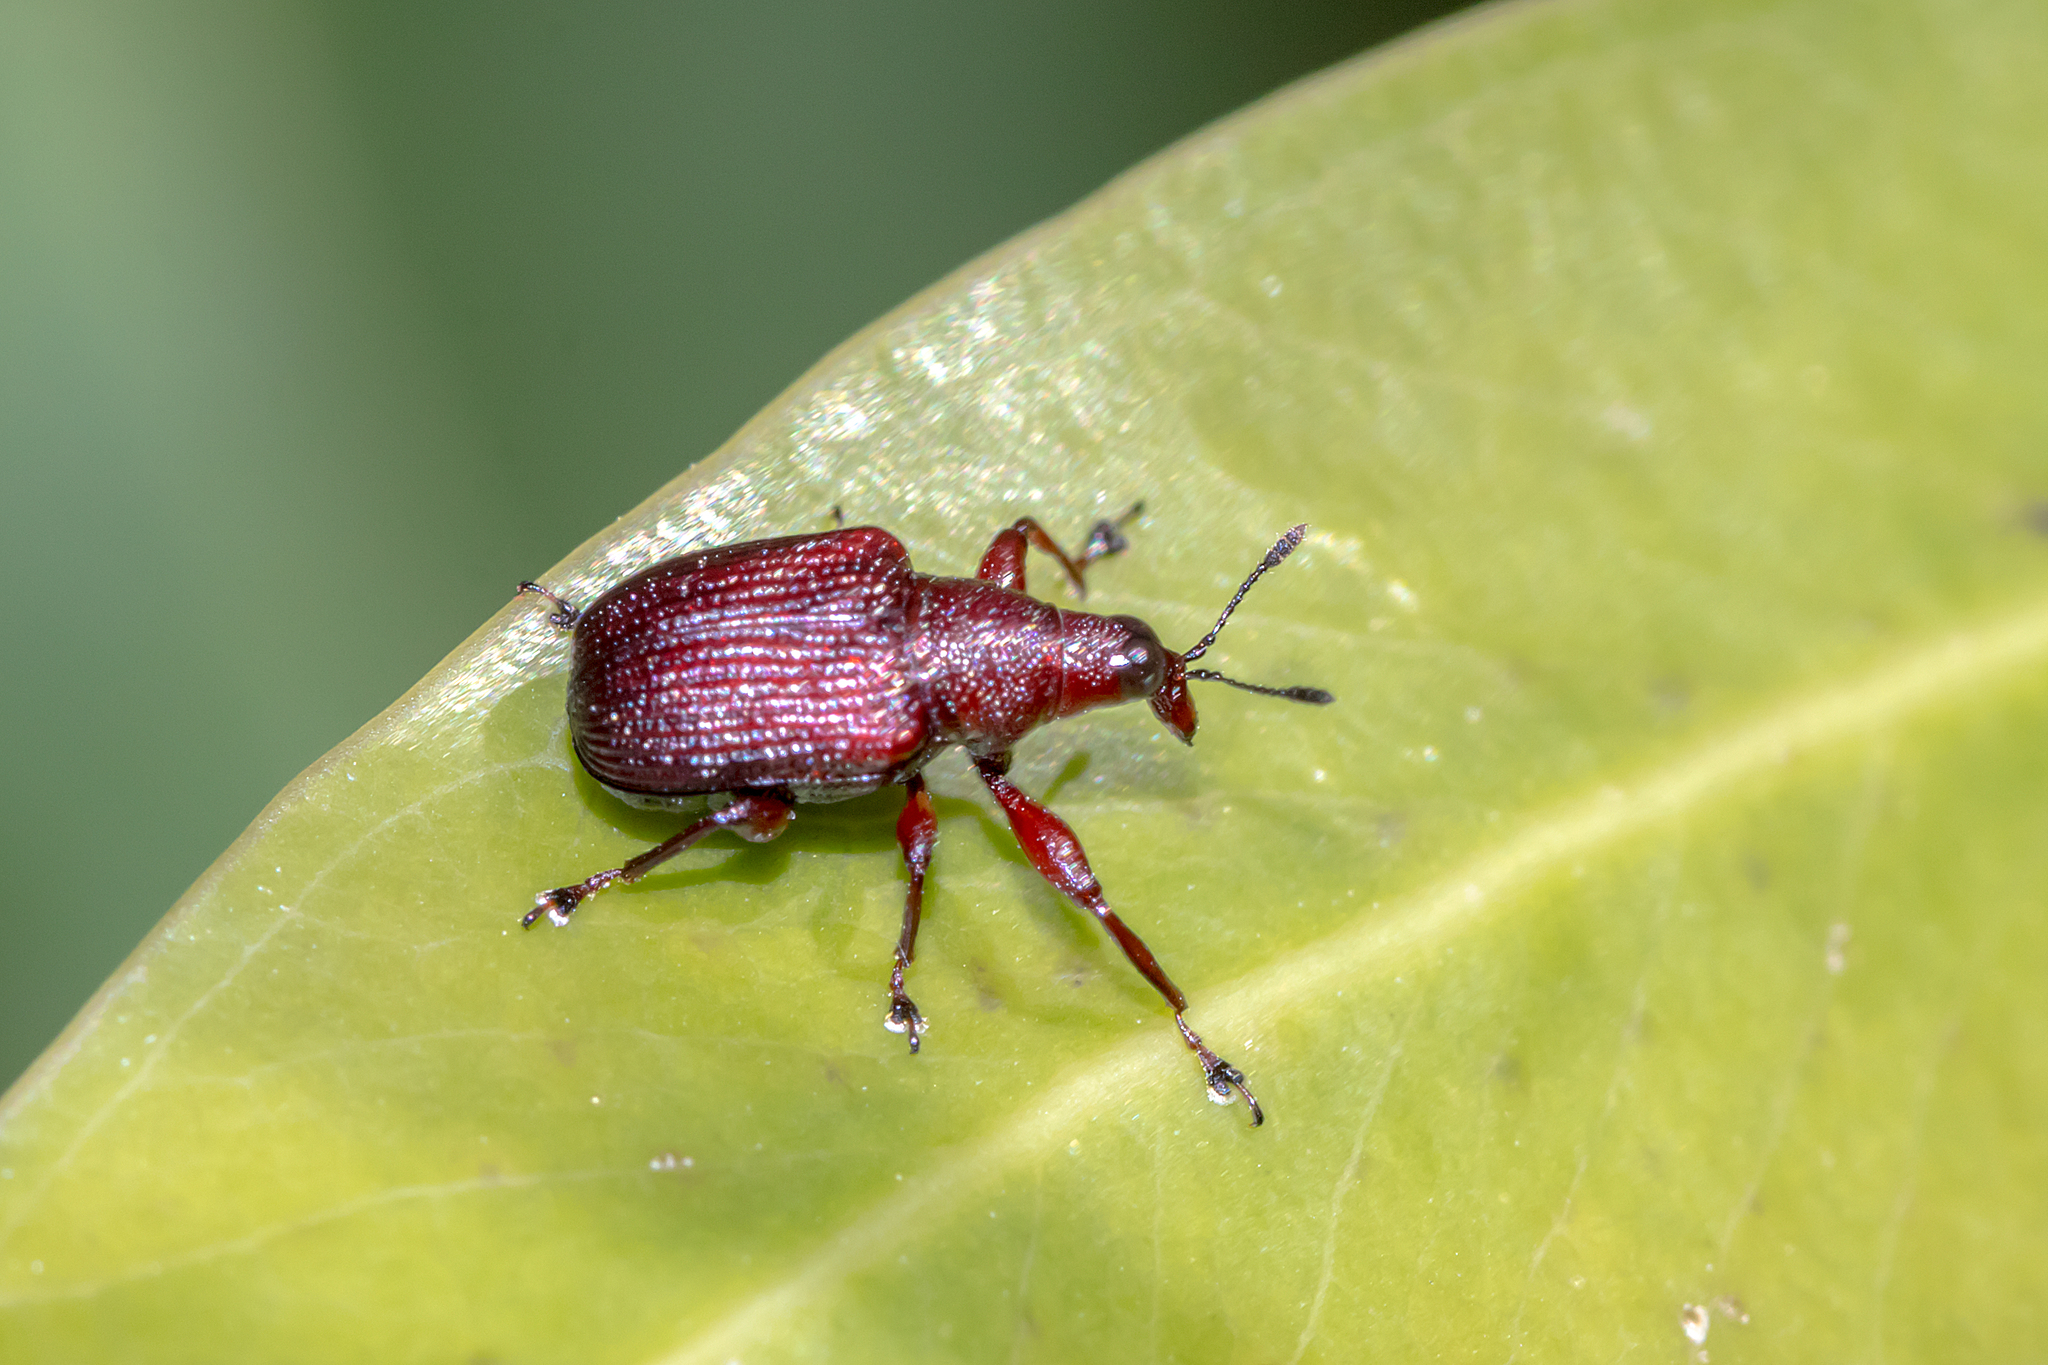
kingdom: Animalia
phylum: Arthropoda
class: Insecta
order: Coleoptera
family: Attelabidae
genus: Euops
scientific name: Euops falcata
